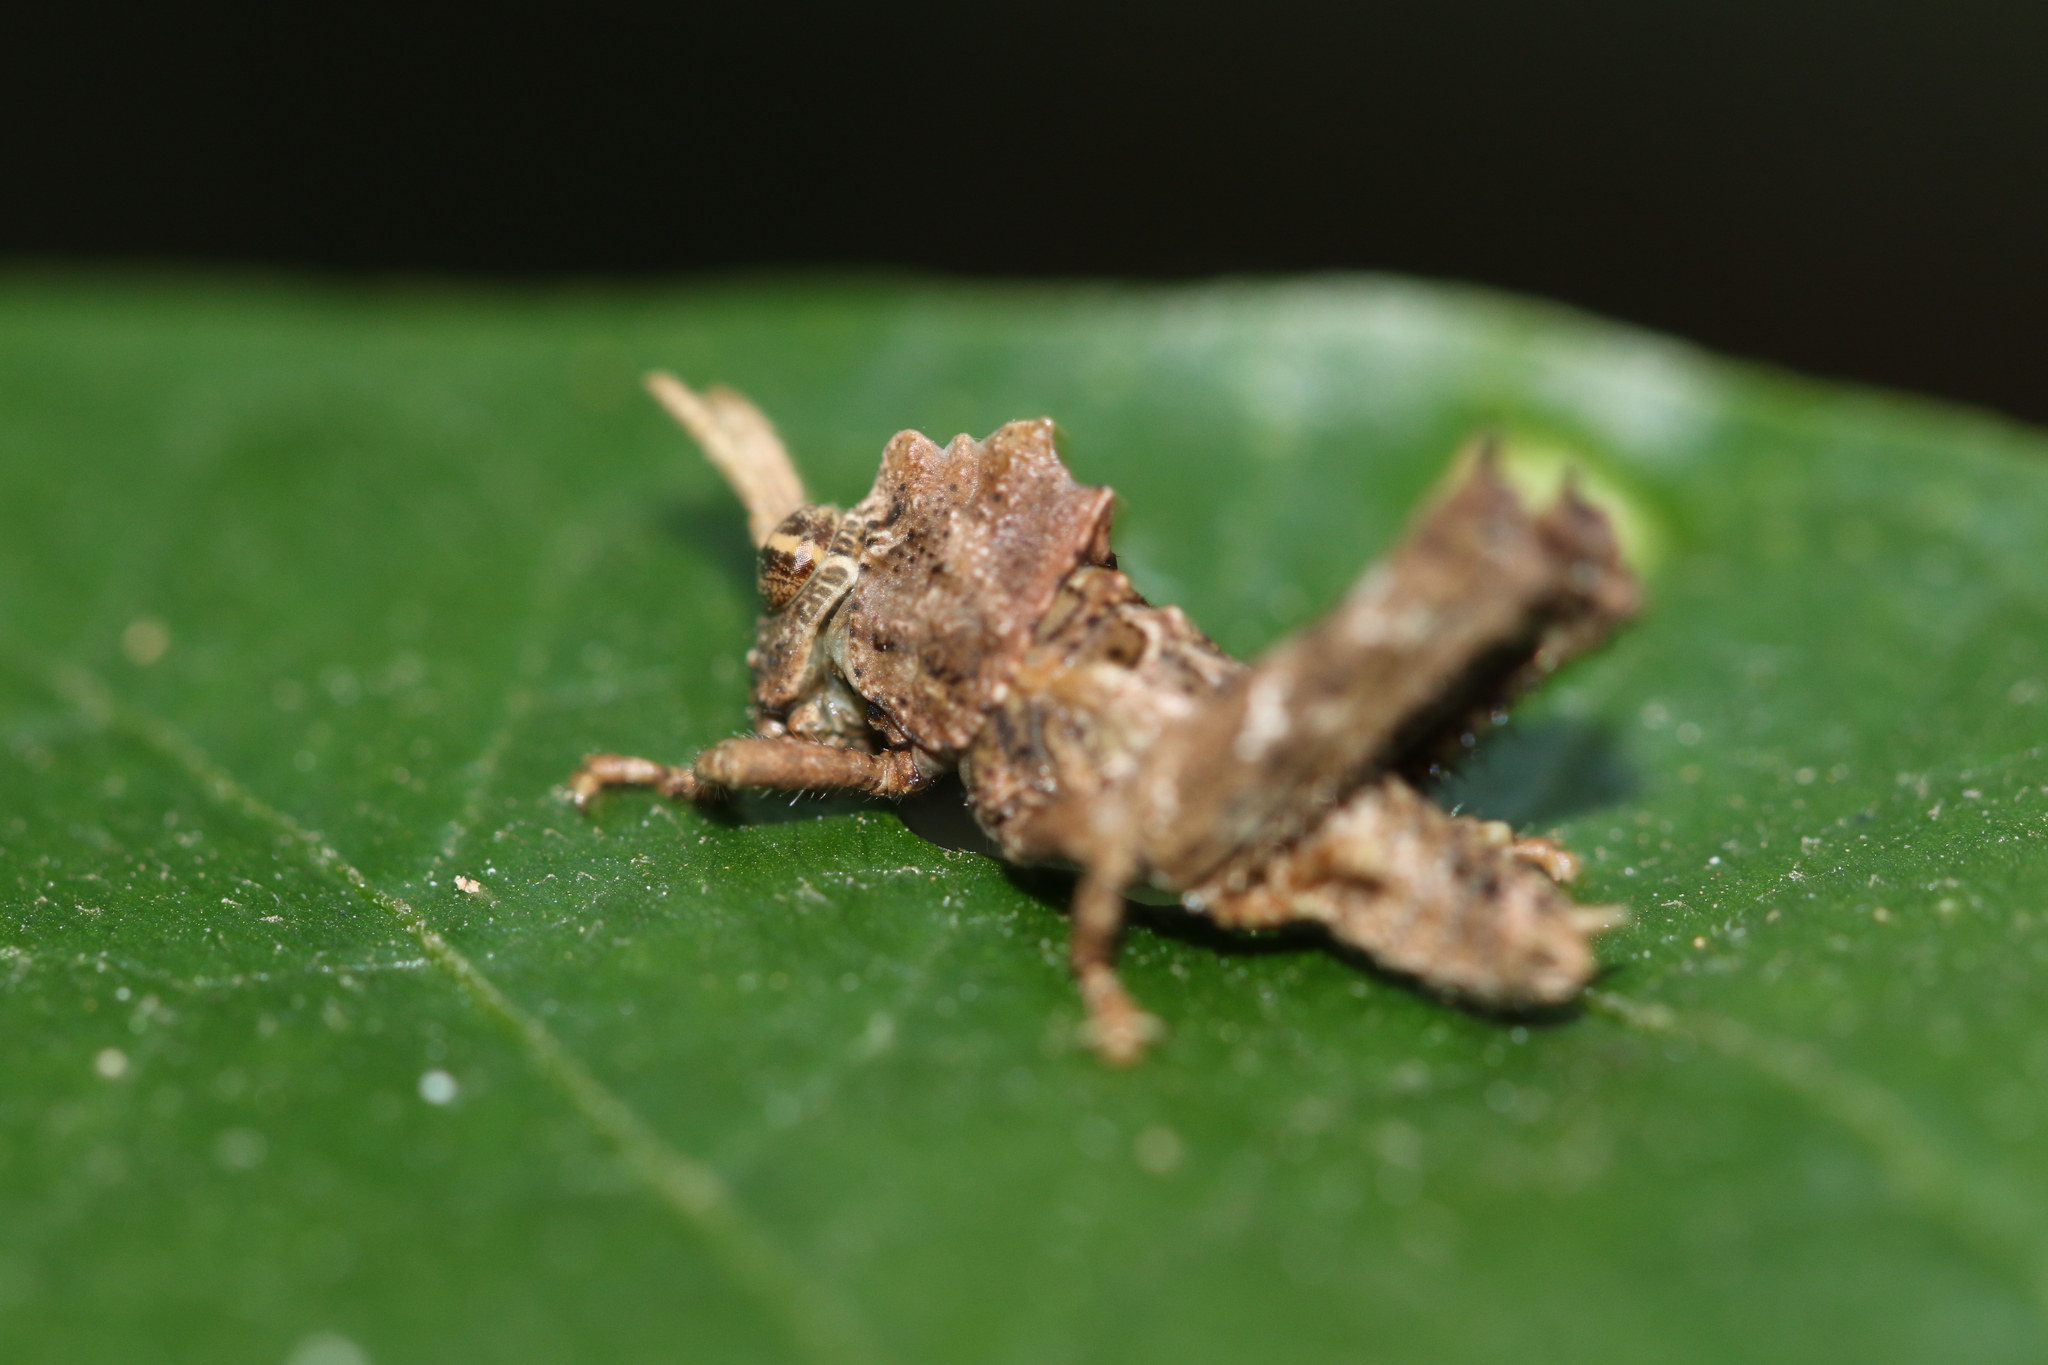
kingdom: Animalia
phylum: Arthropoda
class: Insecta
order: Orthoptera
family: Acrididae
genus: Pycnosarcus
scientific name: Pycnosarcus atavus
